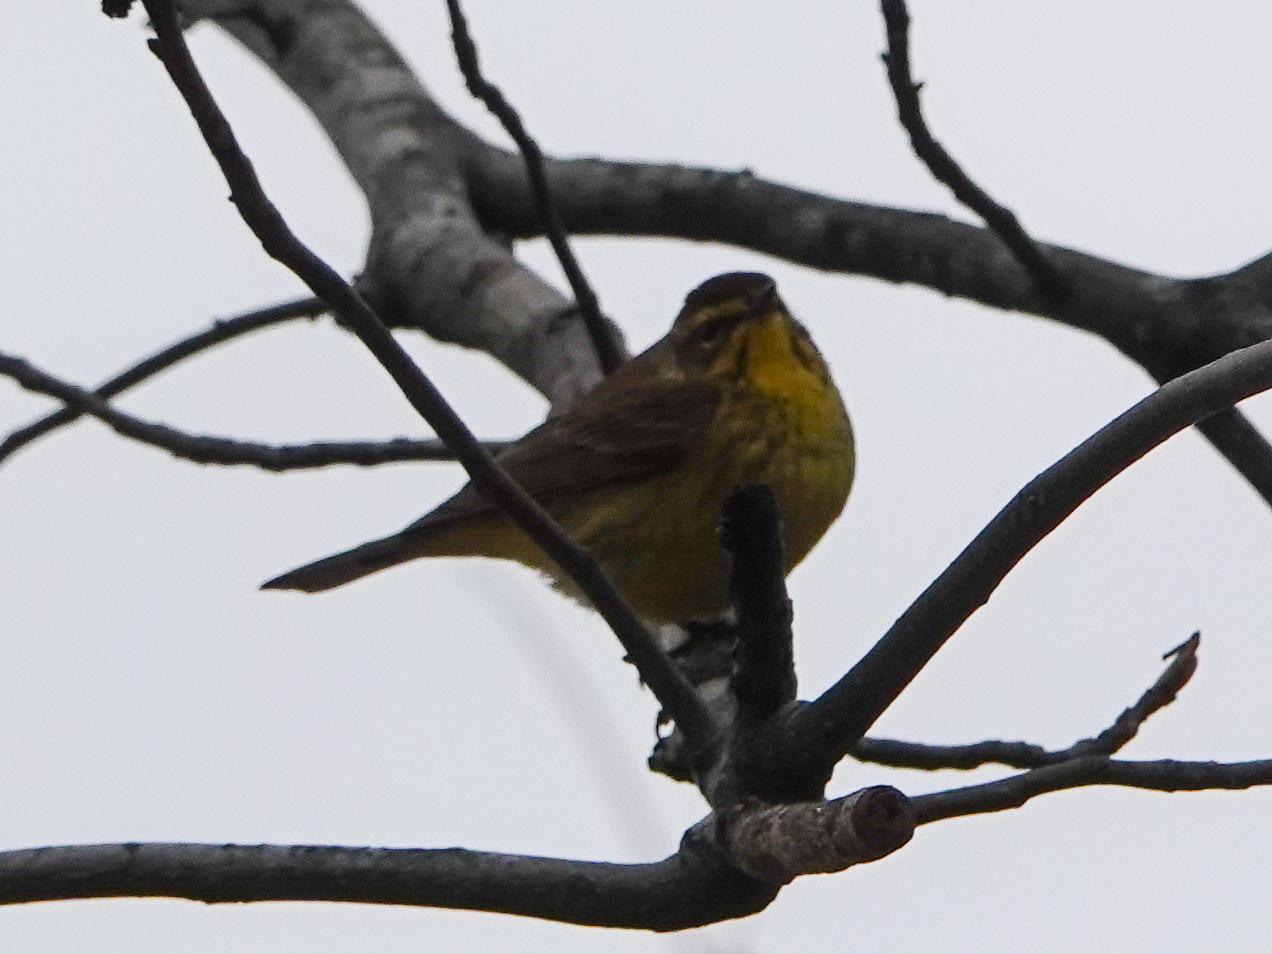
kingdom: Animalia
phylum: Chordata
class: Aves
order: Passeriformes
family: Parulidae
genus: Setophaga
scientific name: Setophaga palmarum
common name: Palm warbler
